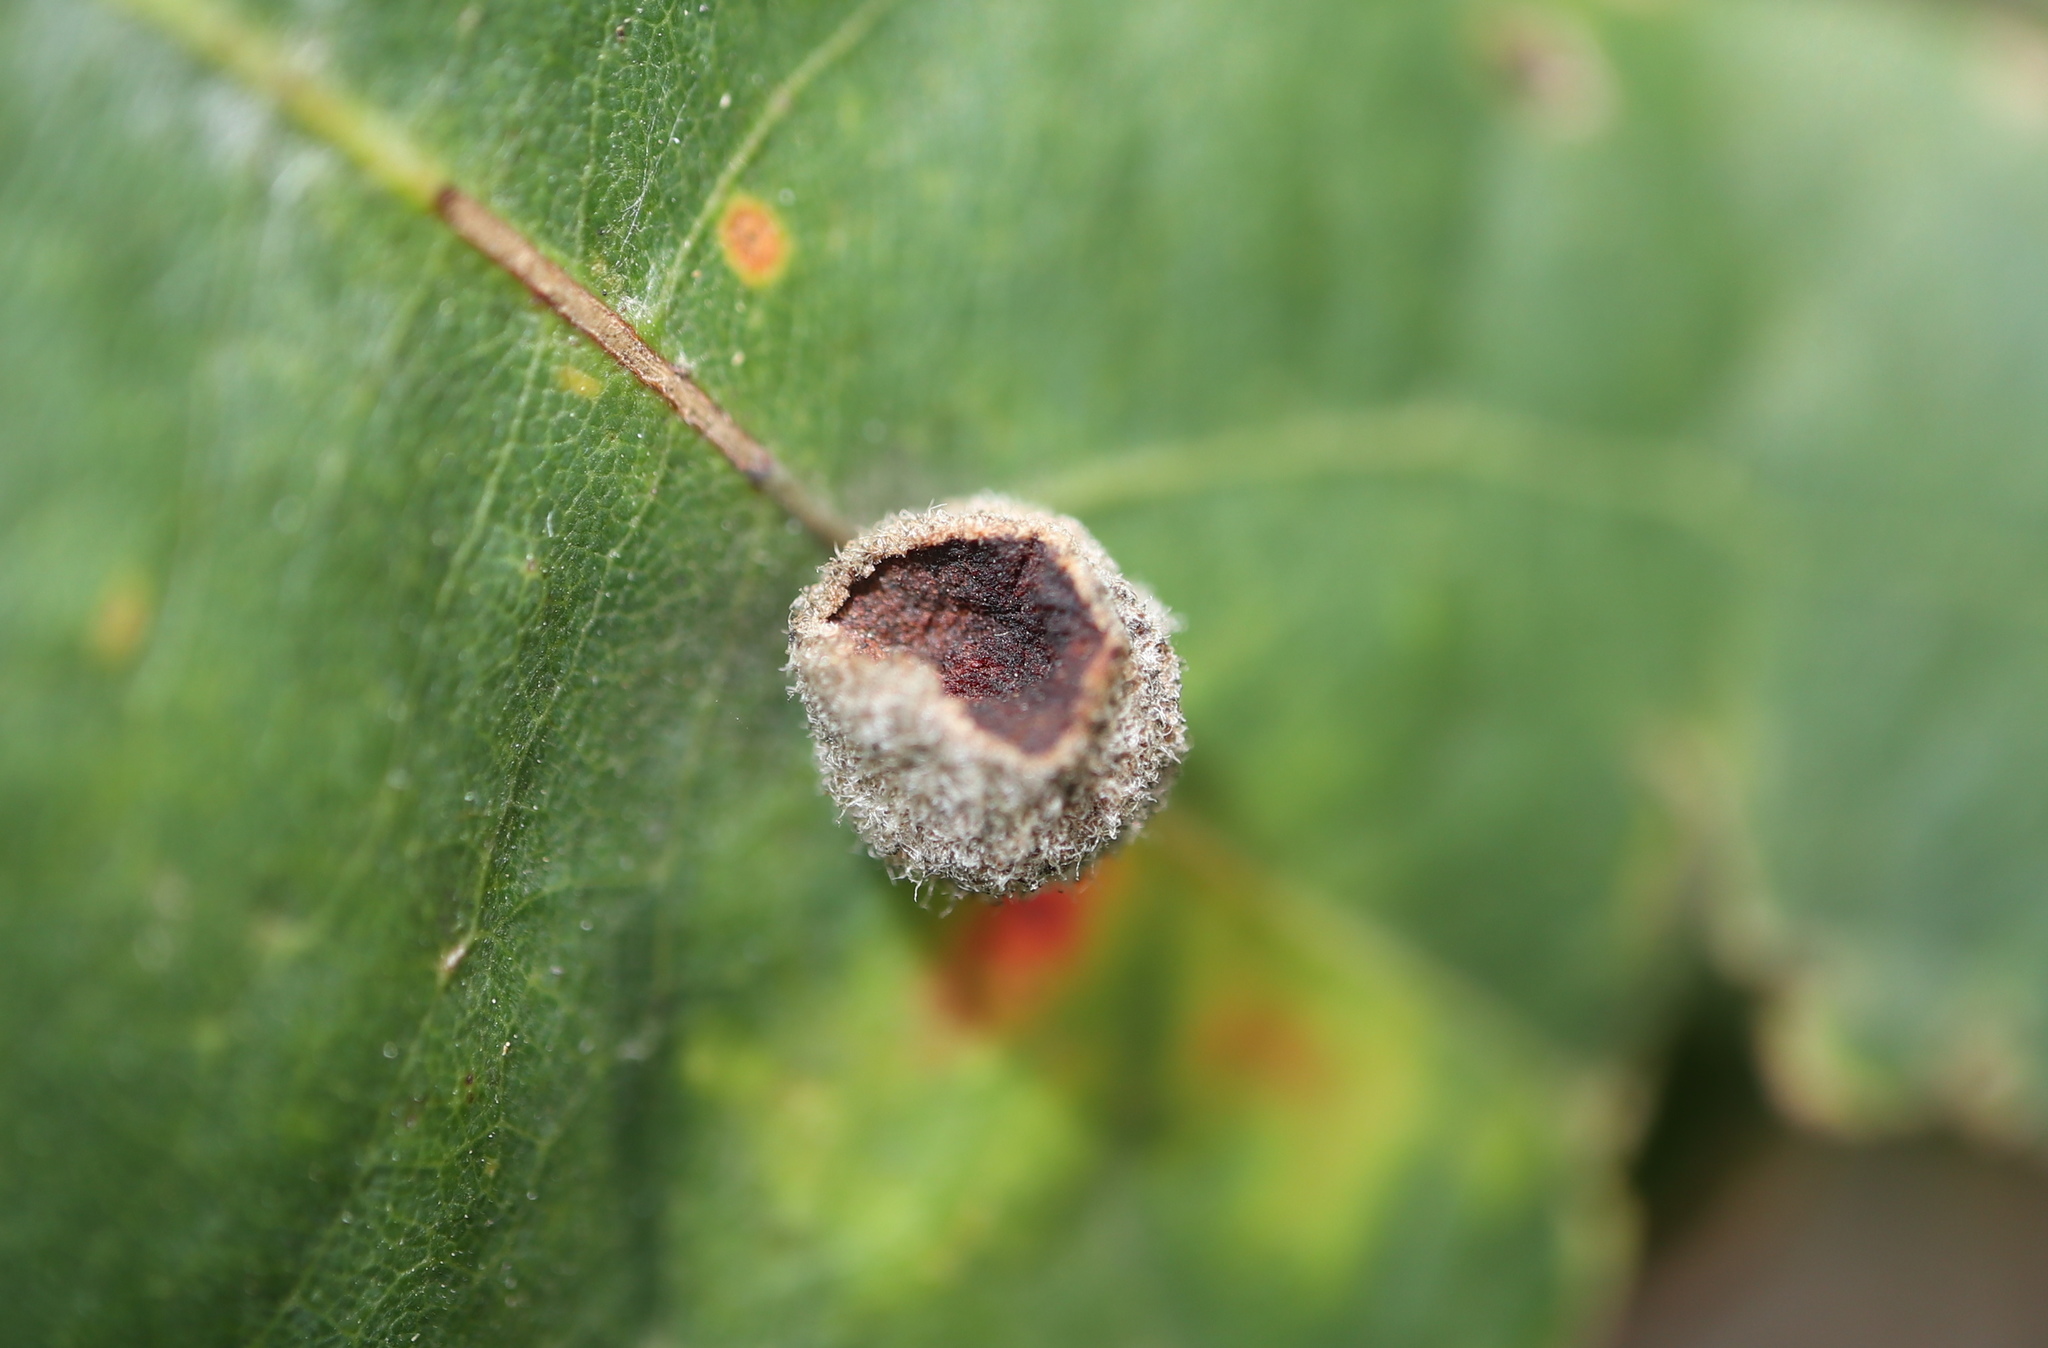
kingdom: Animalia
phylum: Arthropoda
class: Insecta
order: Hymenoptera
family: Cynipidae
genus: Philonix
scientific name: Philonix fulvicollis
